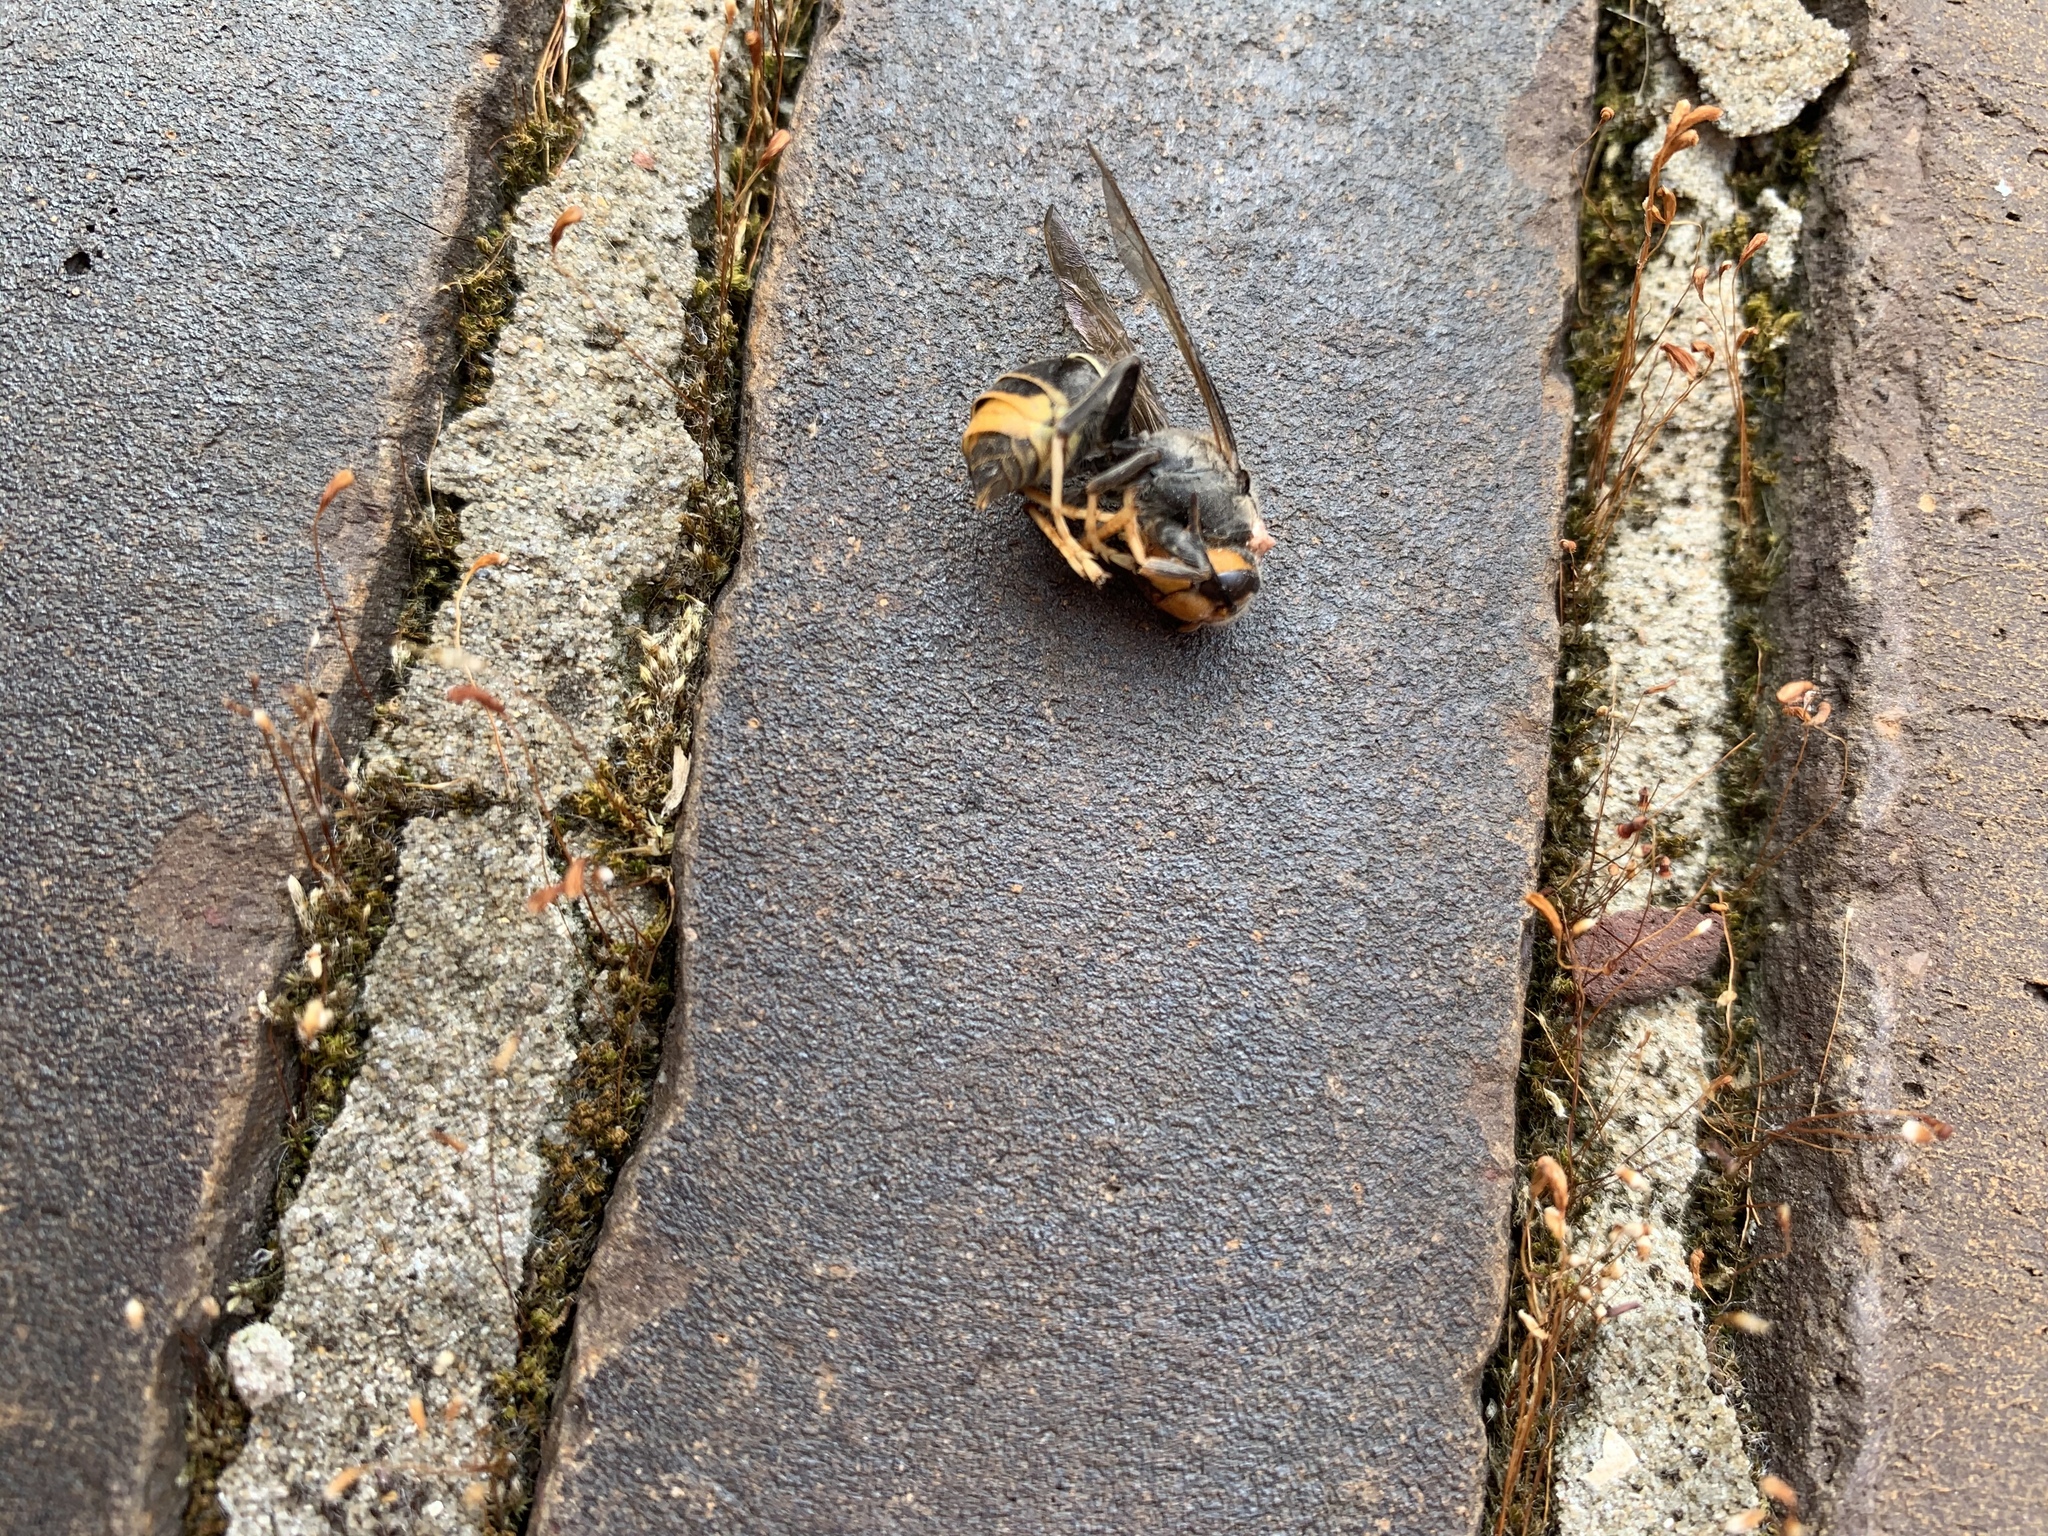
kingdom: Animalia
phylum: Arthropoda
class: Insecta
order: Hymenoptera
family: Vespidae
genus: Vespa
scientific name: Vespa velutina
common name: Asian hornet
